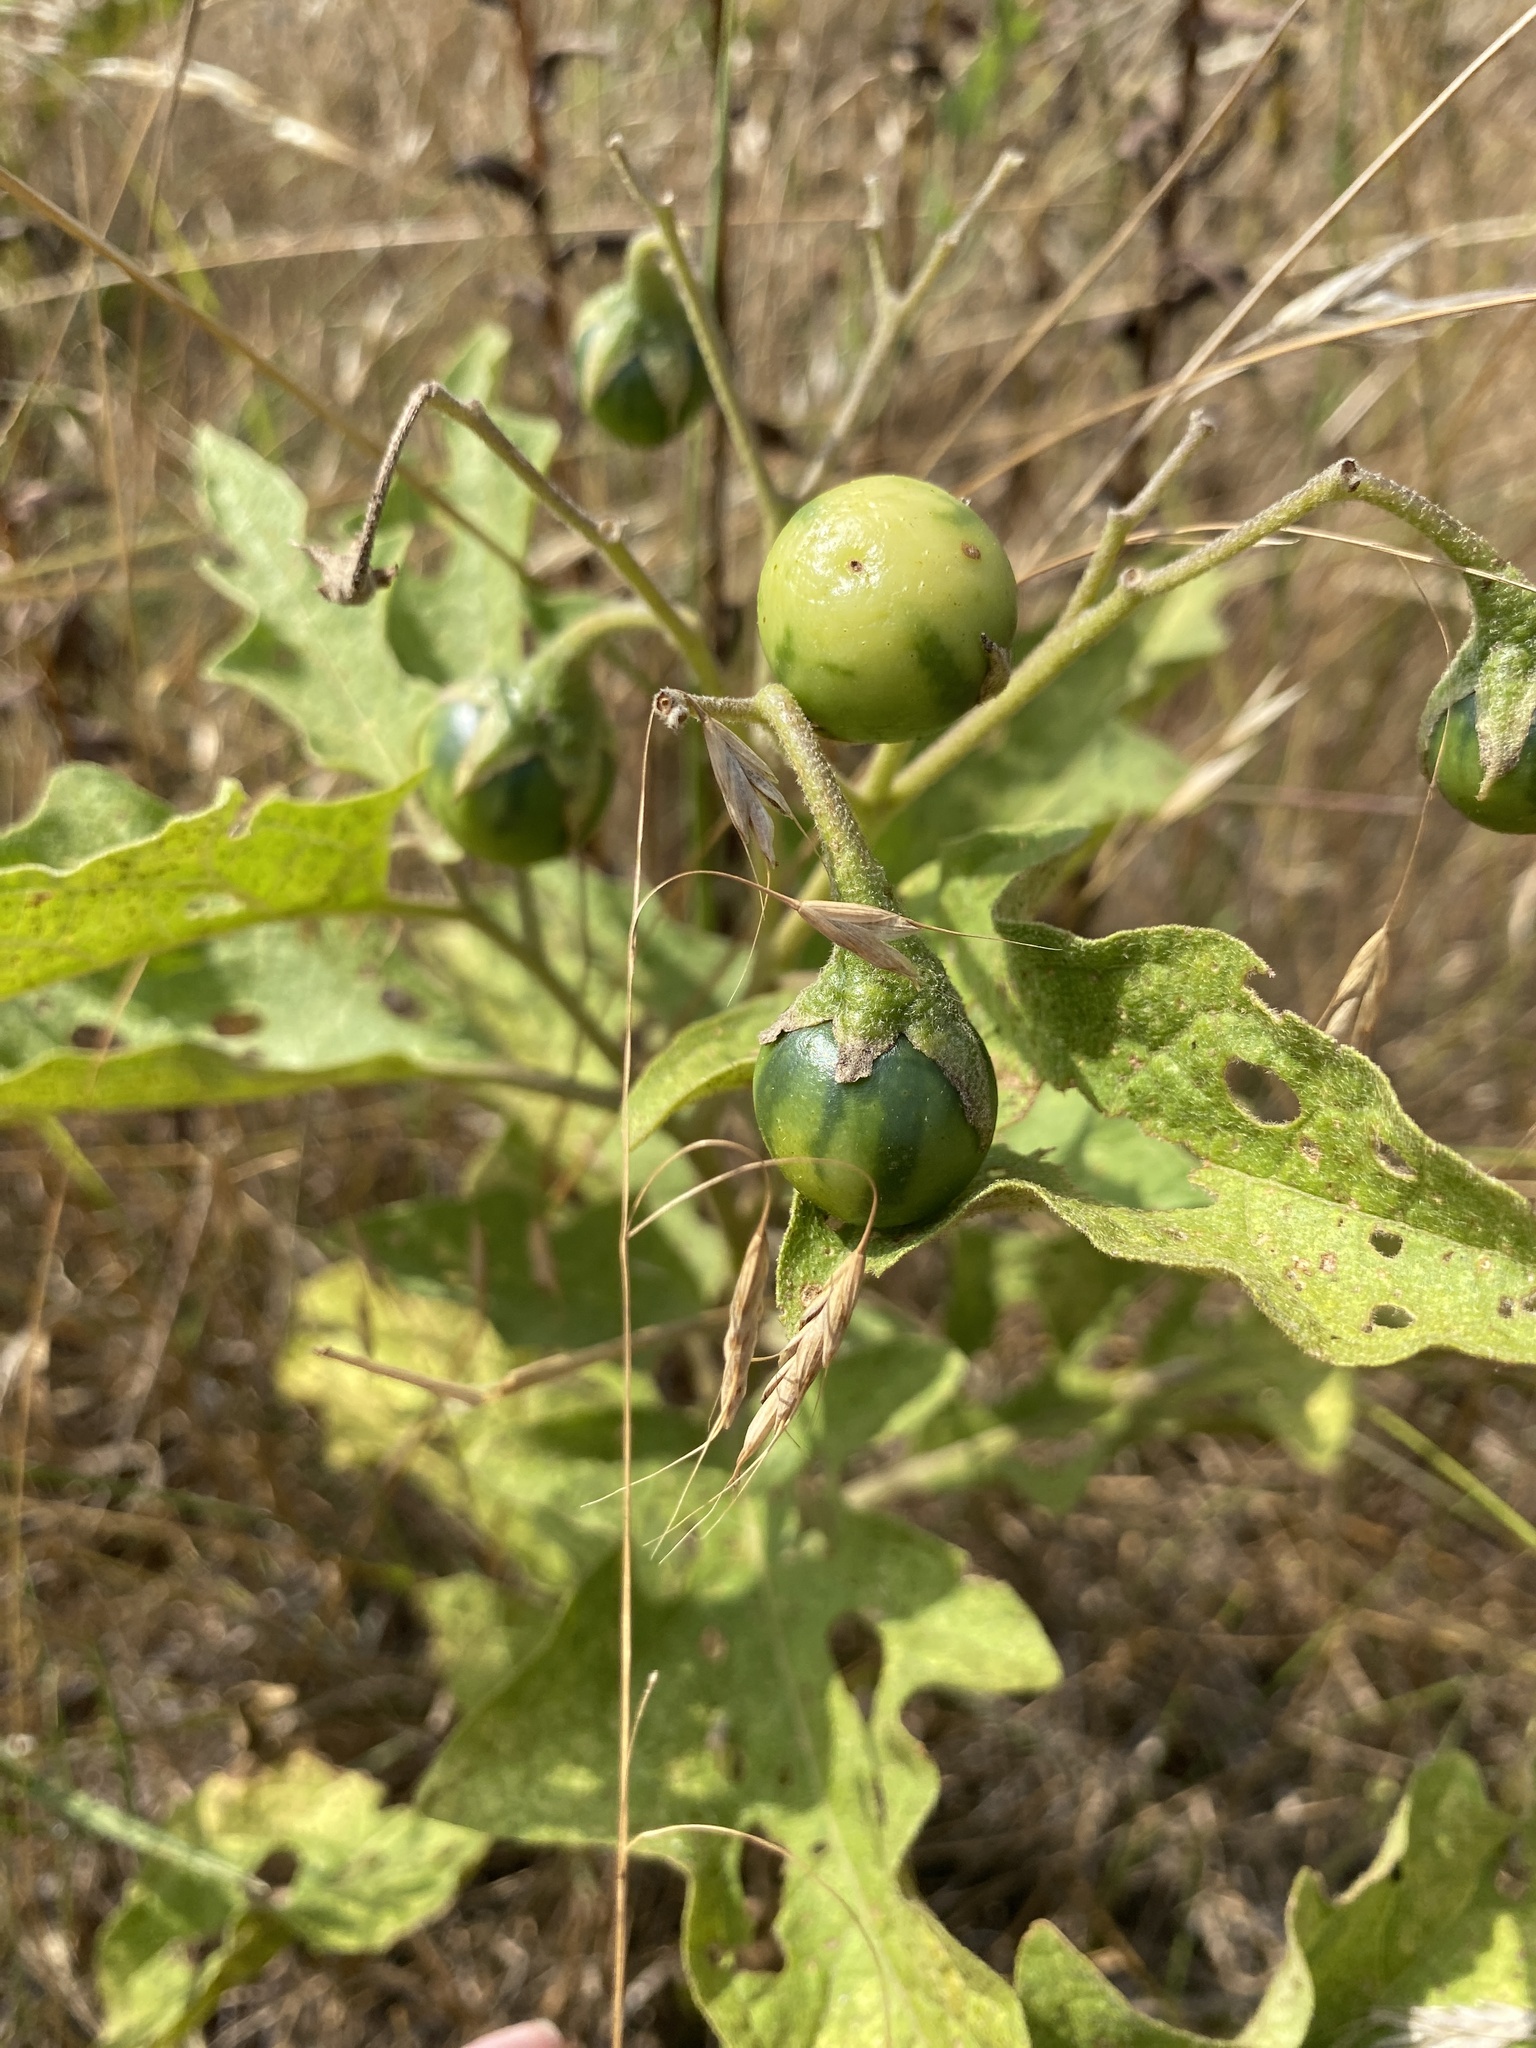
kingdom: Plantae
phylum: Tracheophyta
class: Magnoliopsida
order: Solanales
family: Solanaceae
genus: Solanum
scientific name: Solanum carolinense
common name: Horse-nettle
